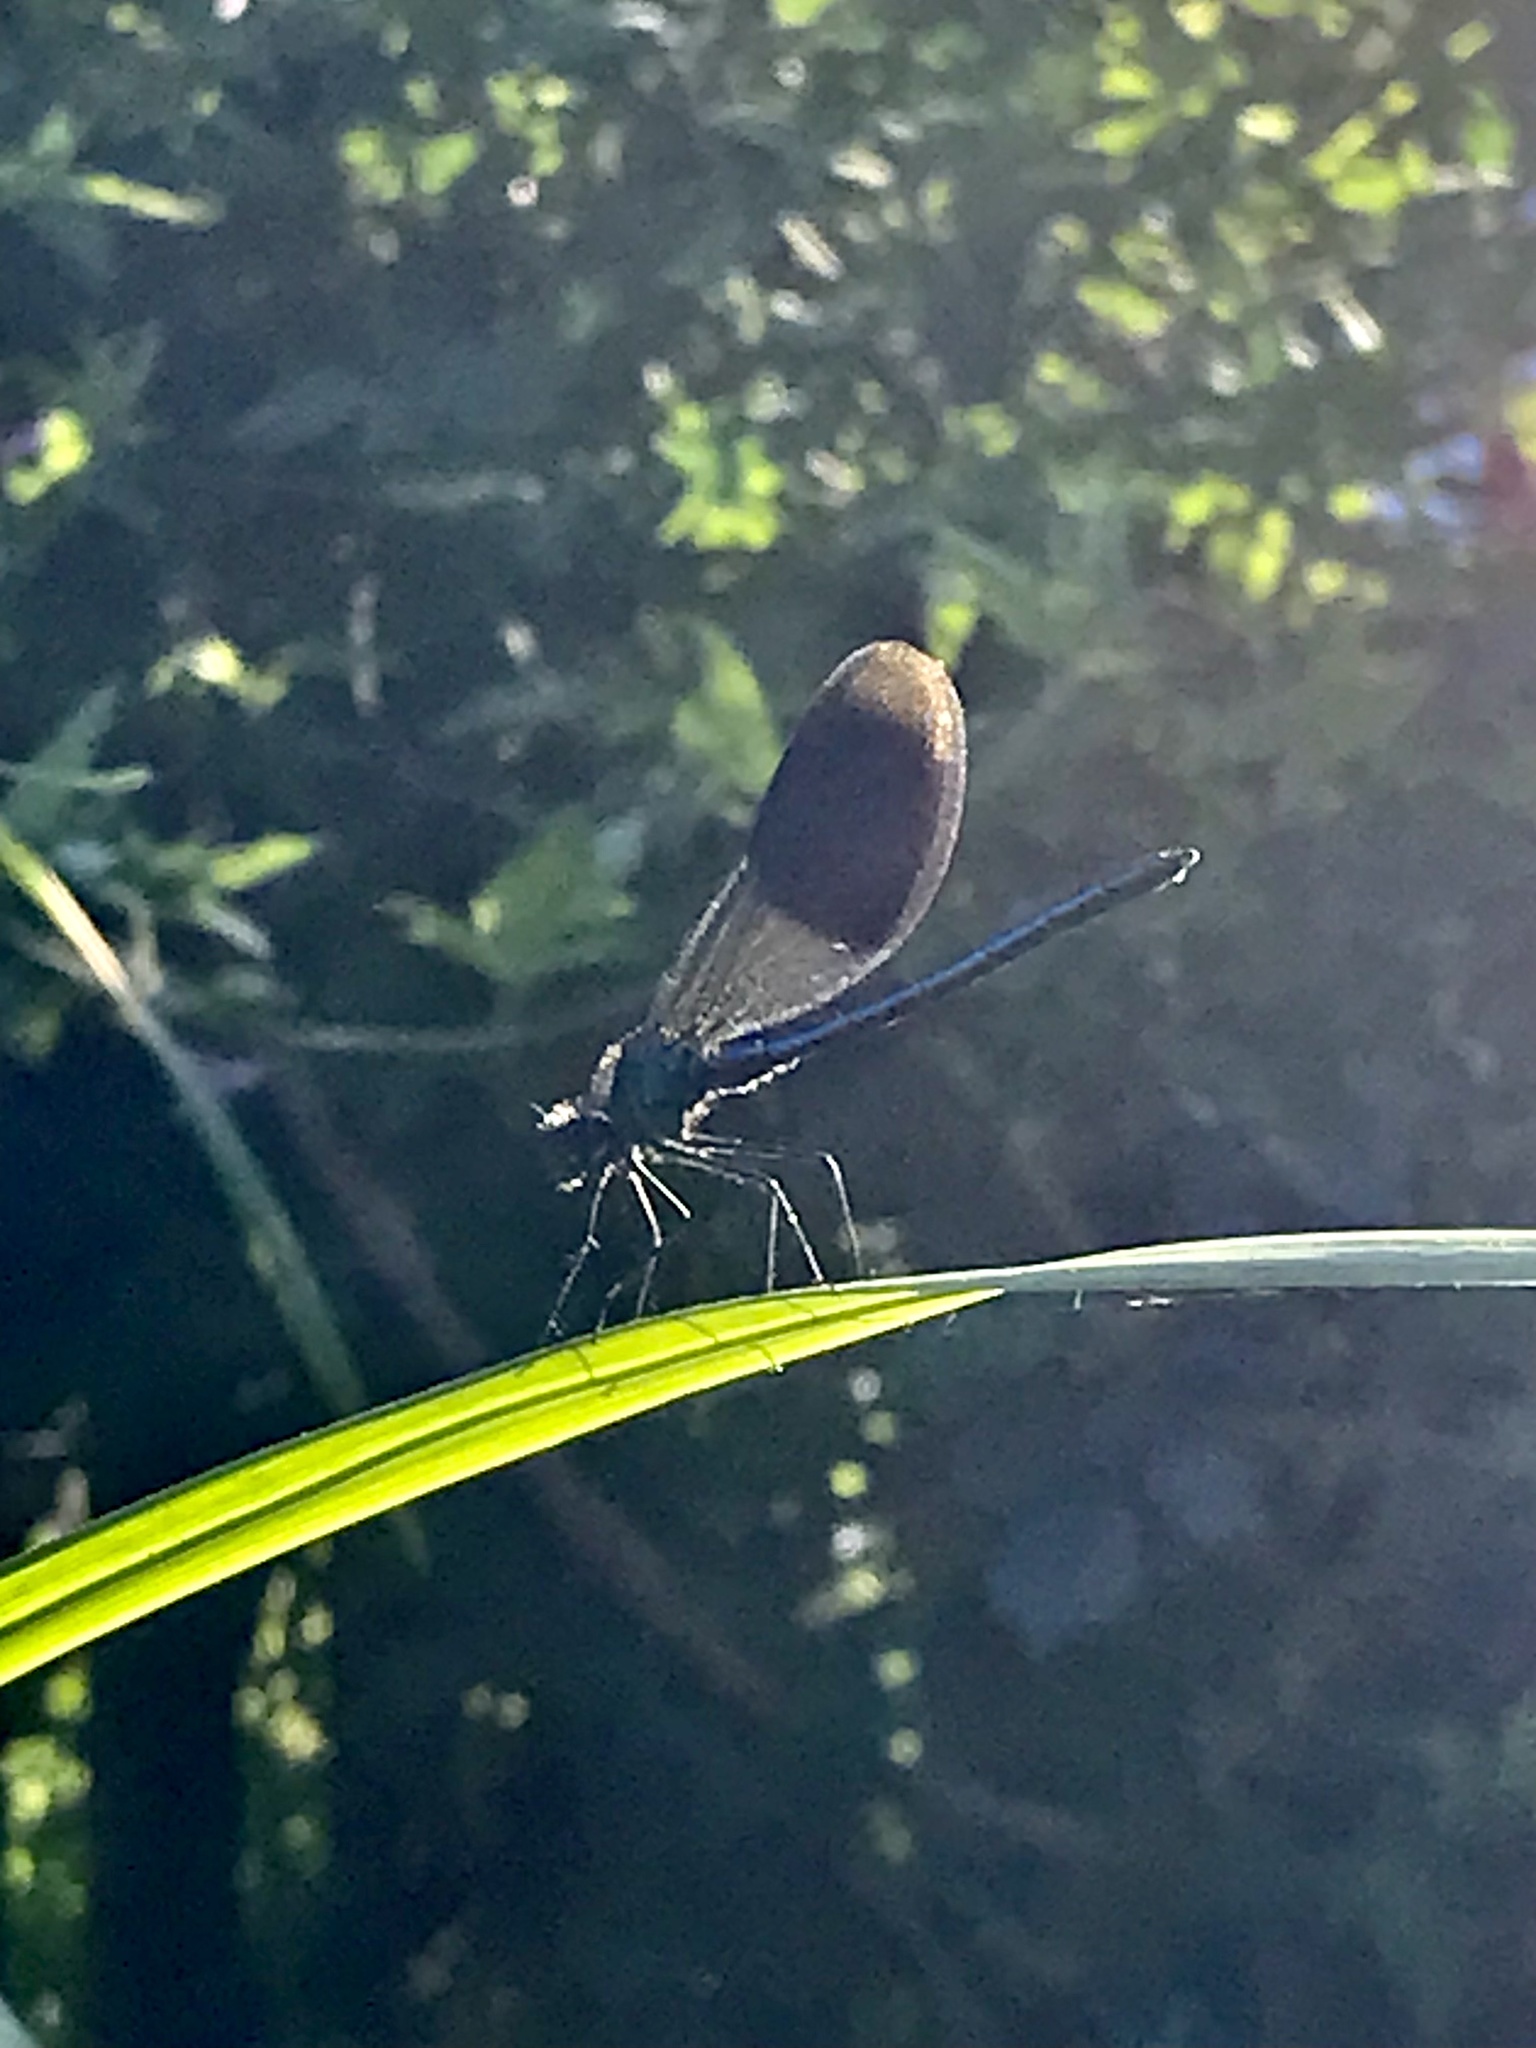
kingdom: Animalia
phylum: Arthropoda
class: Insecta
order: Odonata
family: Calopterygidae
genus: Calopteryx
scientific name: Calopteryx splendens
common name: Banded demoiselle
